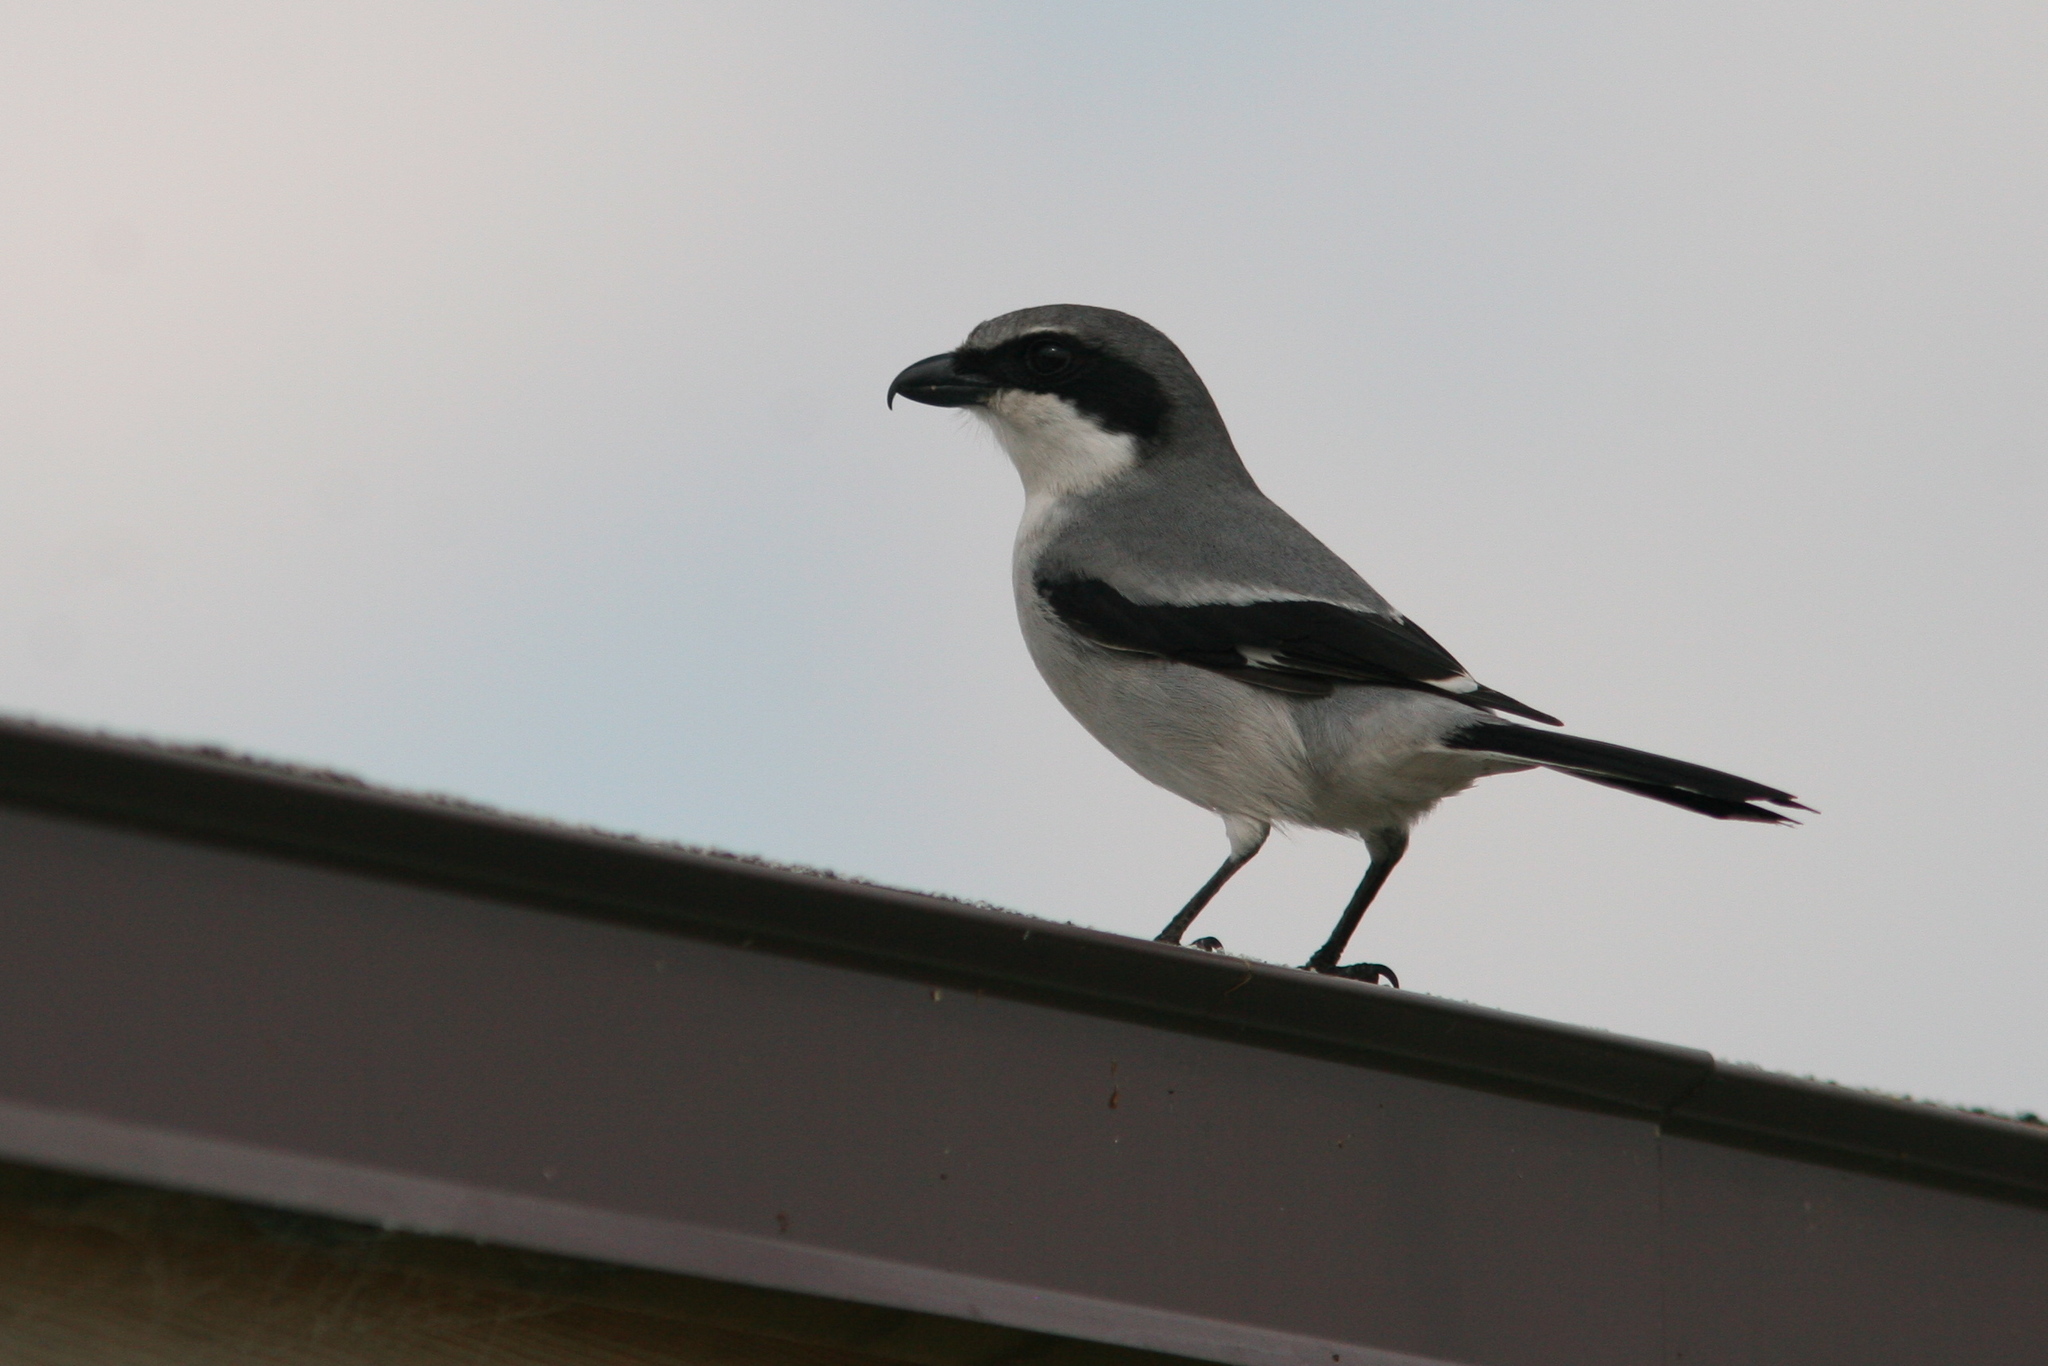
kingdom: Animalia
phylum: Chordata
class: Aves
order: Passeriformes
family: Laniidae
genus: Lanius
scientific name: Lanius ludovicianus
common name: Loggerhead shrike
